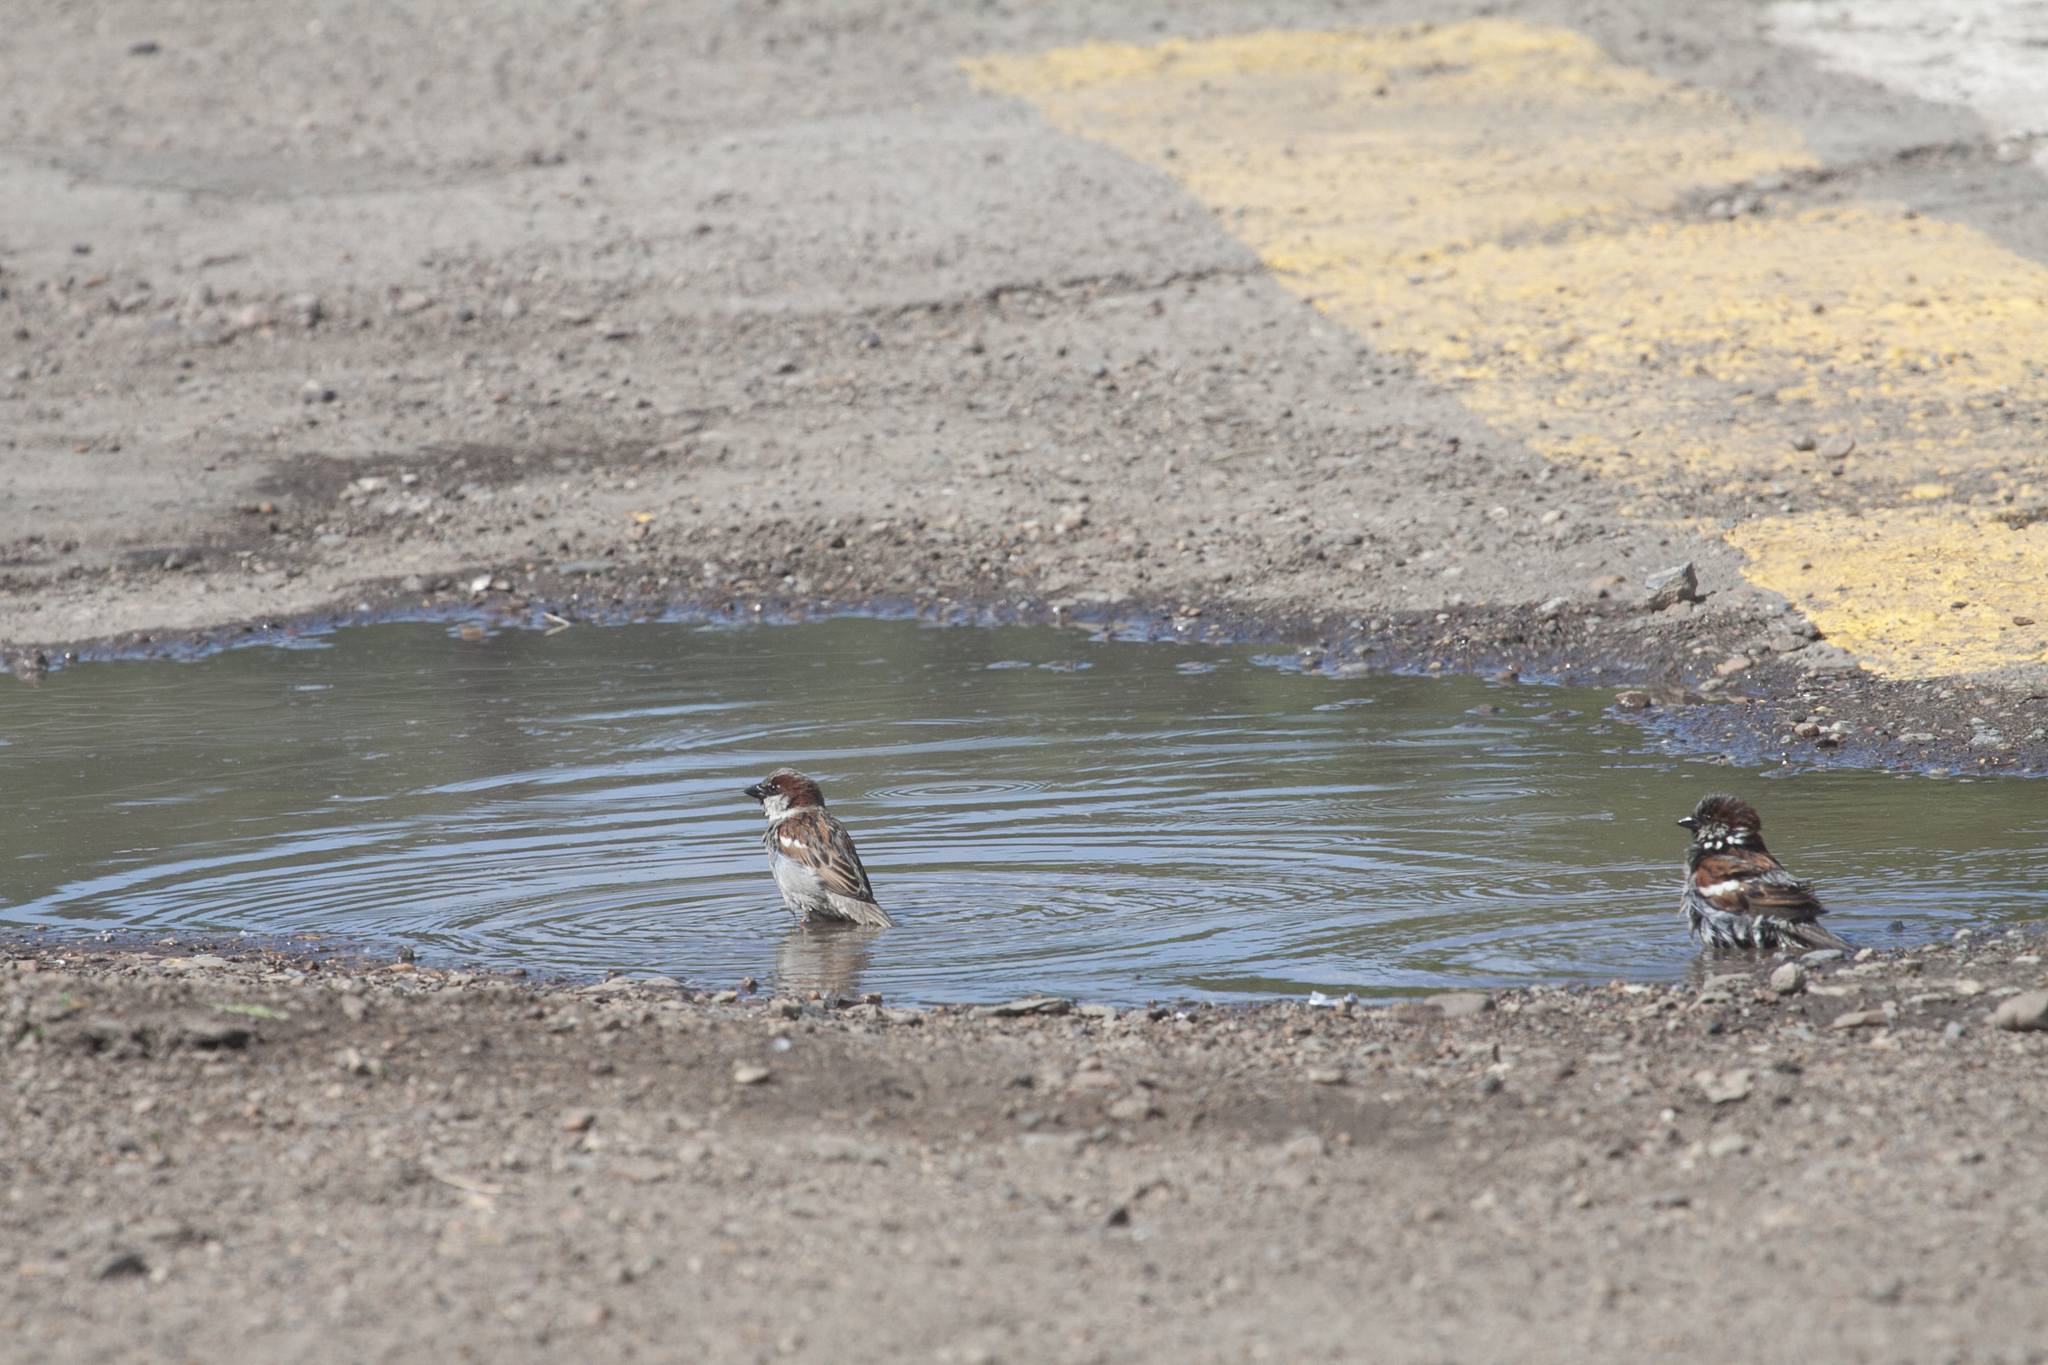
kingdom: Animalia
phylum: Chordata
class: Aves
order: Passeriformes
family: Passeridae
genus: Passer
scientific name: Passer domesticus
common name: House sparrow
